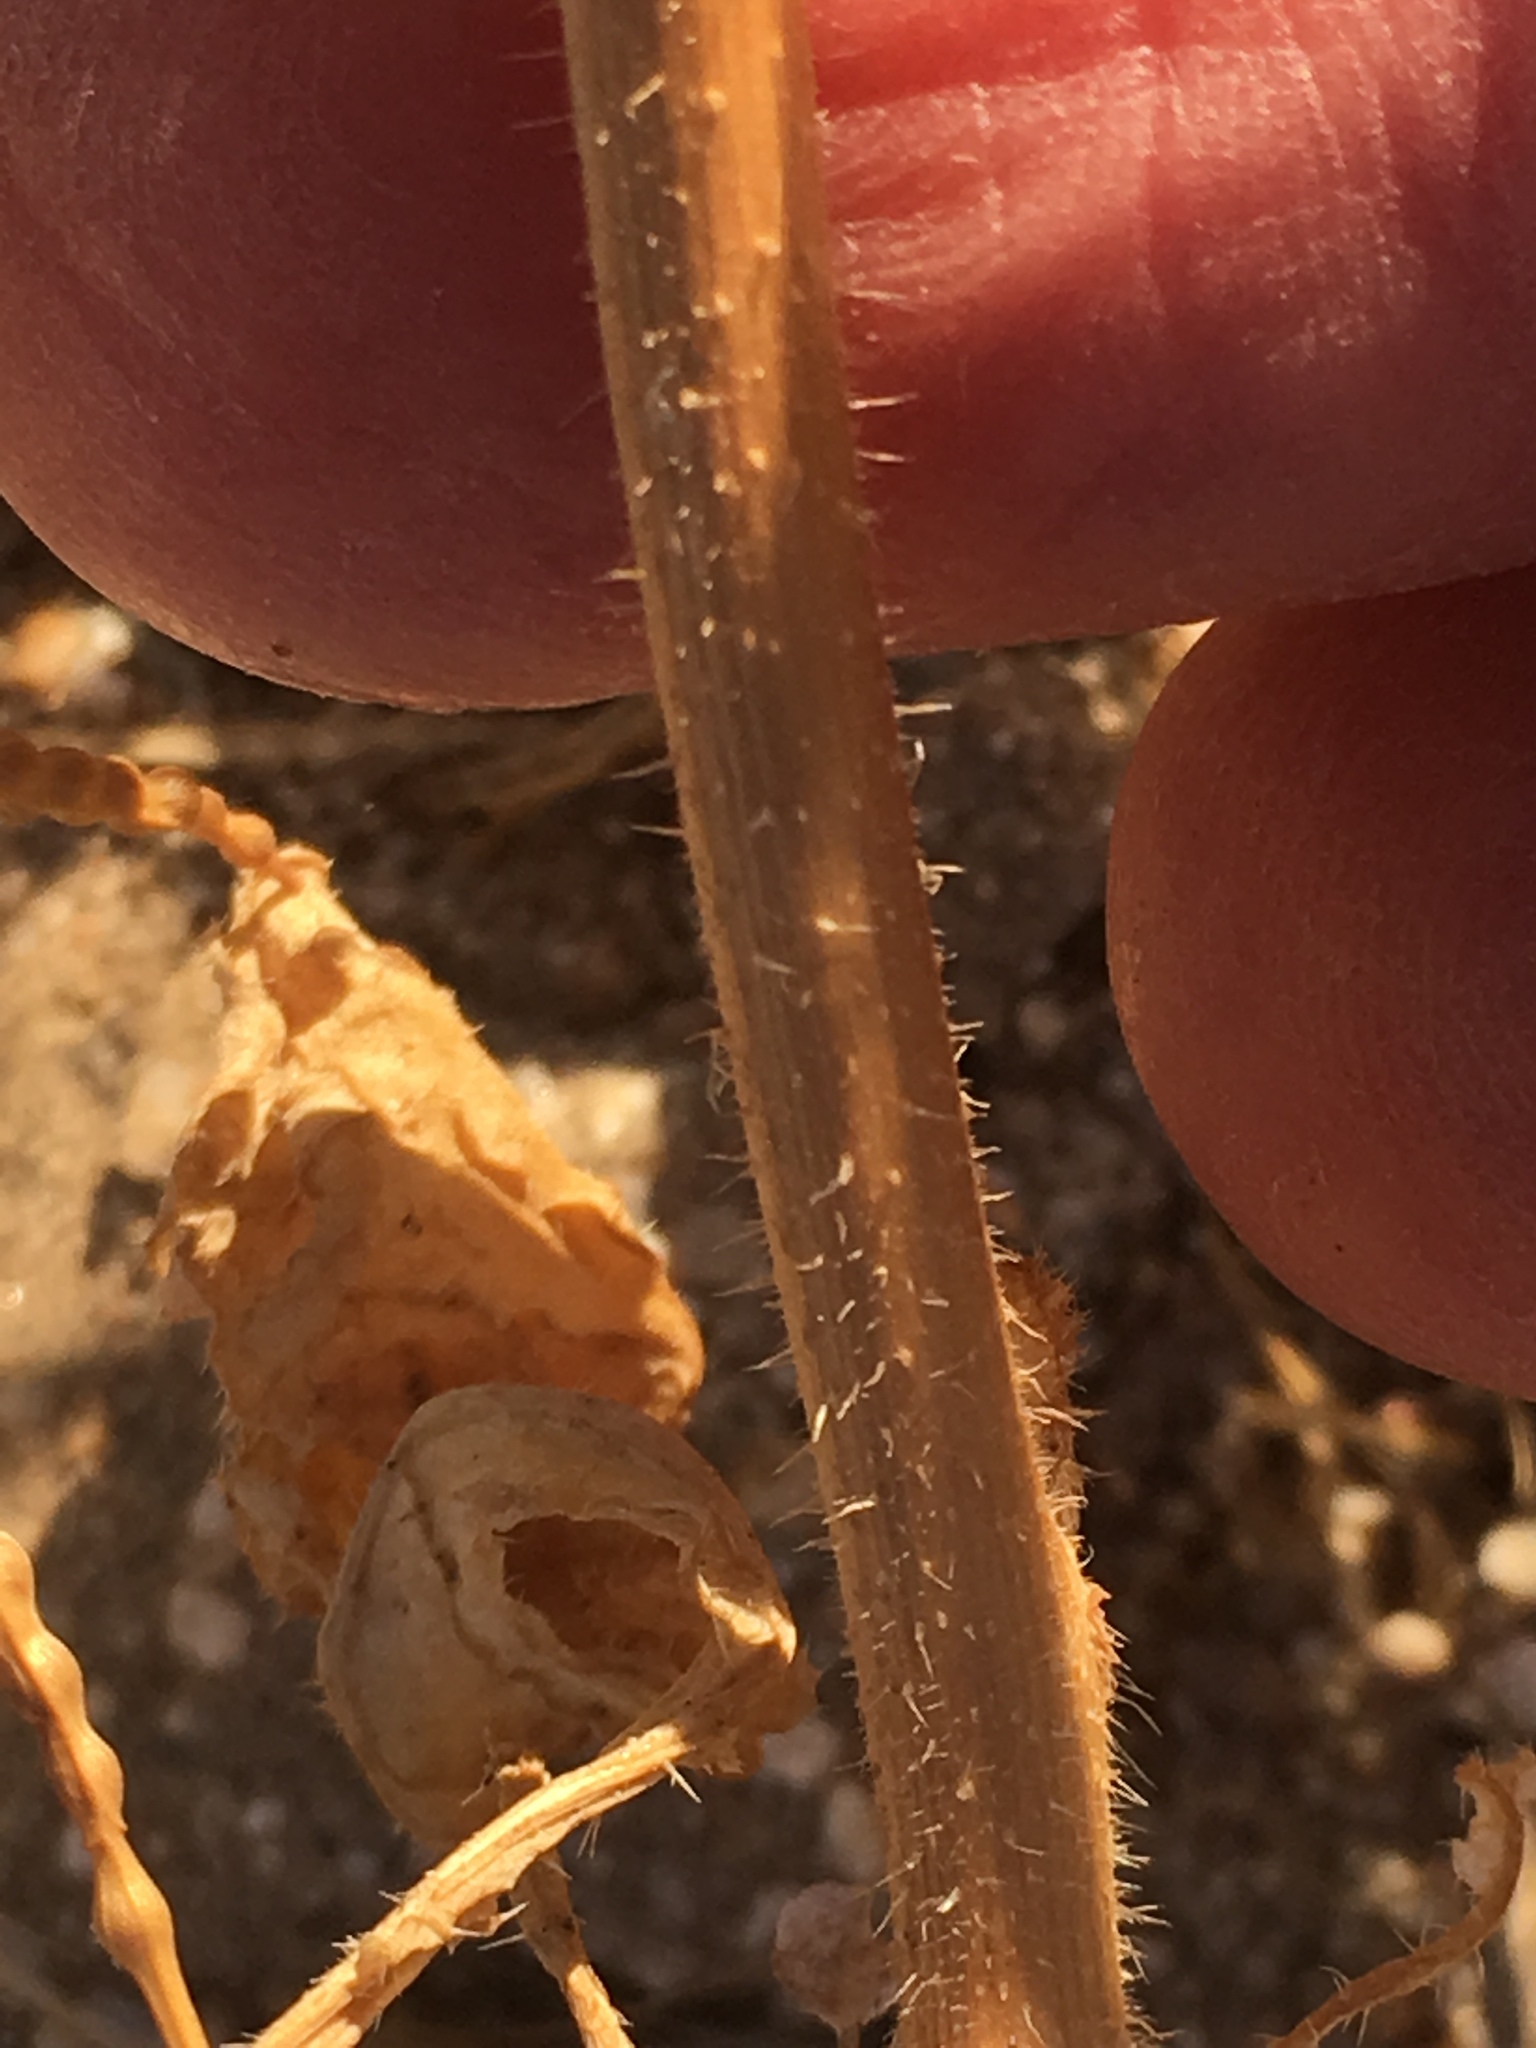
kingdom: Plantae
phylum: Tracheophyta
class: Magnoliopsida
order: Brassicales
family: Brassicaceae
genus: Brassica
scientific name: Brassica tournefortii
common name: Pale cabbage
